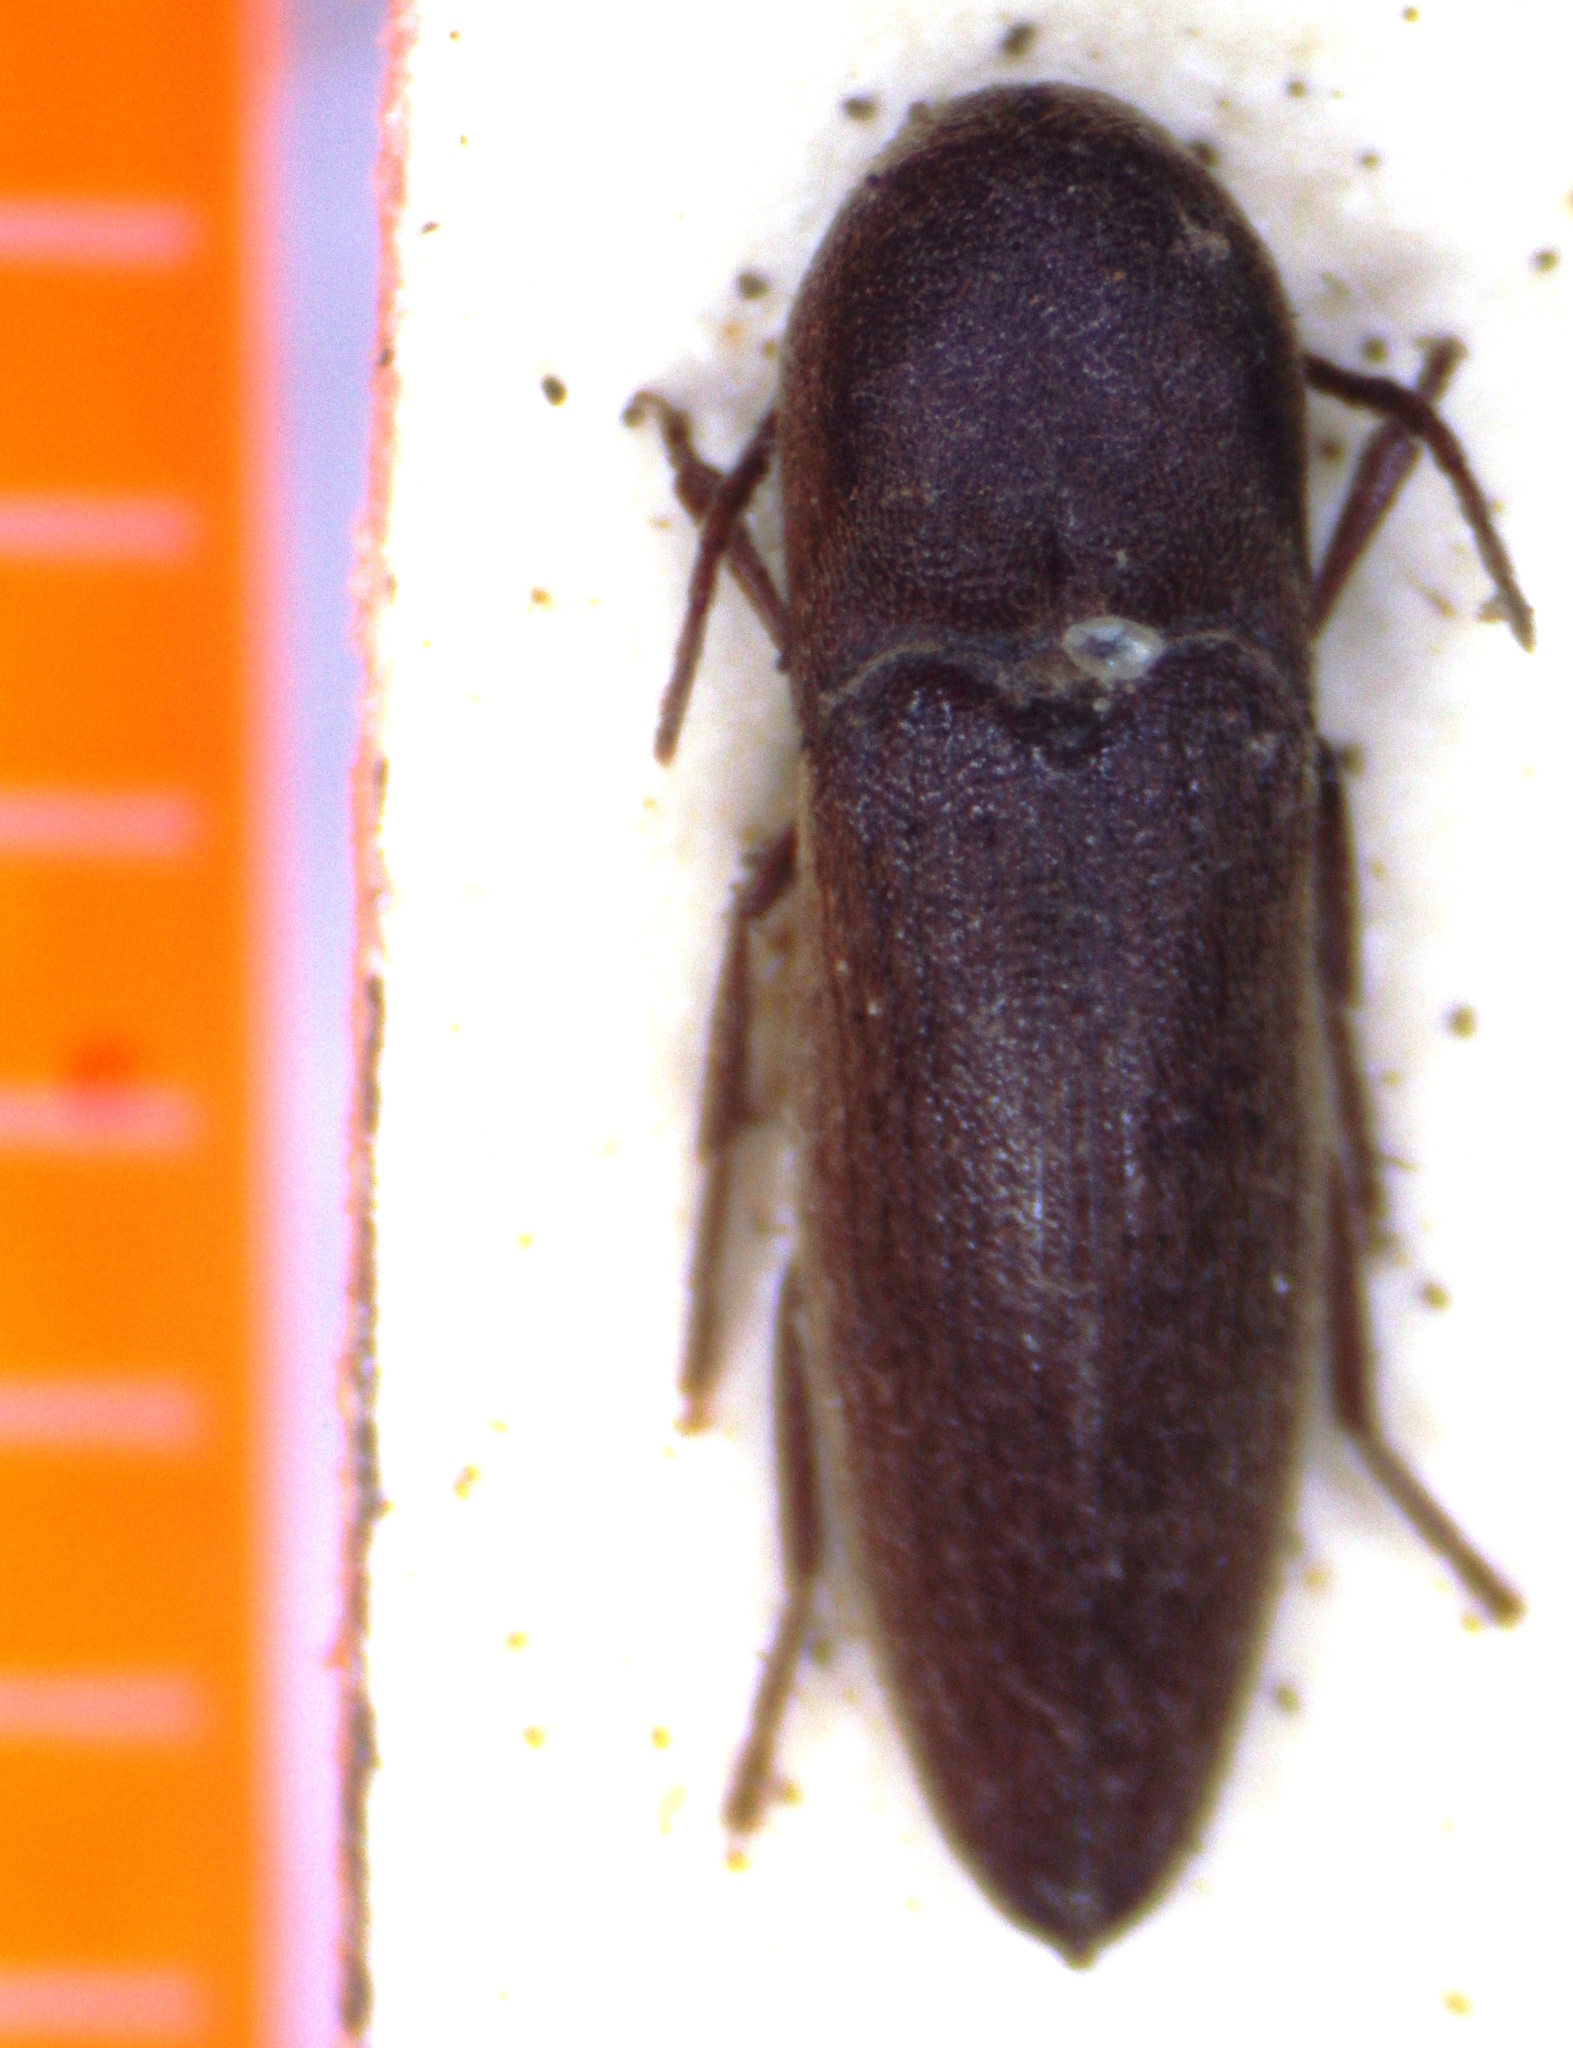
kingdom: Animalia
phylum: Arthropoda
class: Insecta
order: Coleoptera
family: Eucnemidae
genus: Protofarsus
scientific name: Protofarsus
